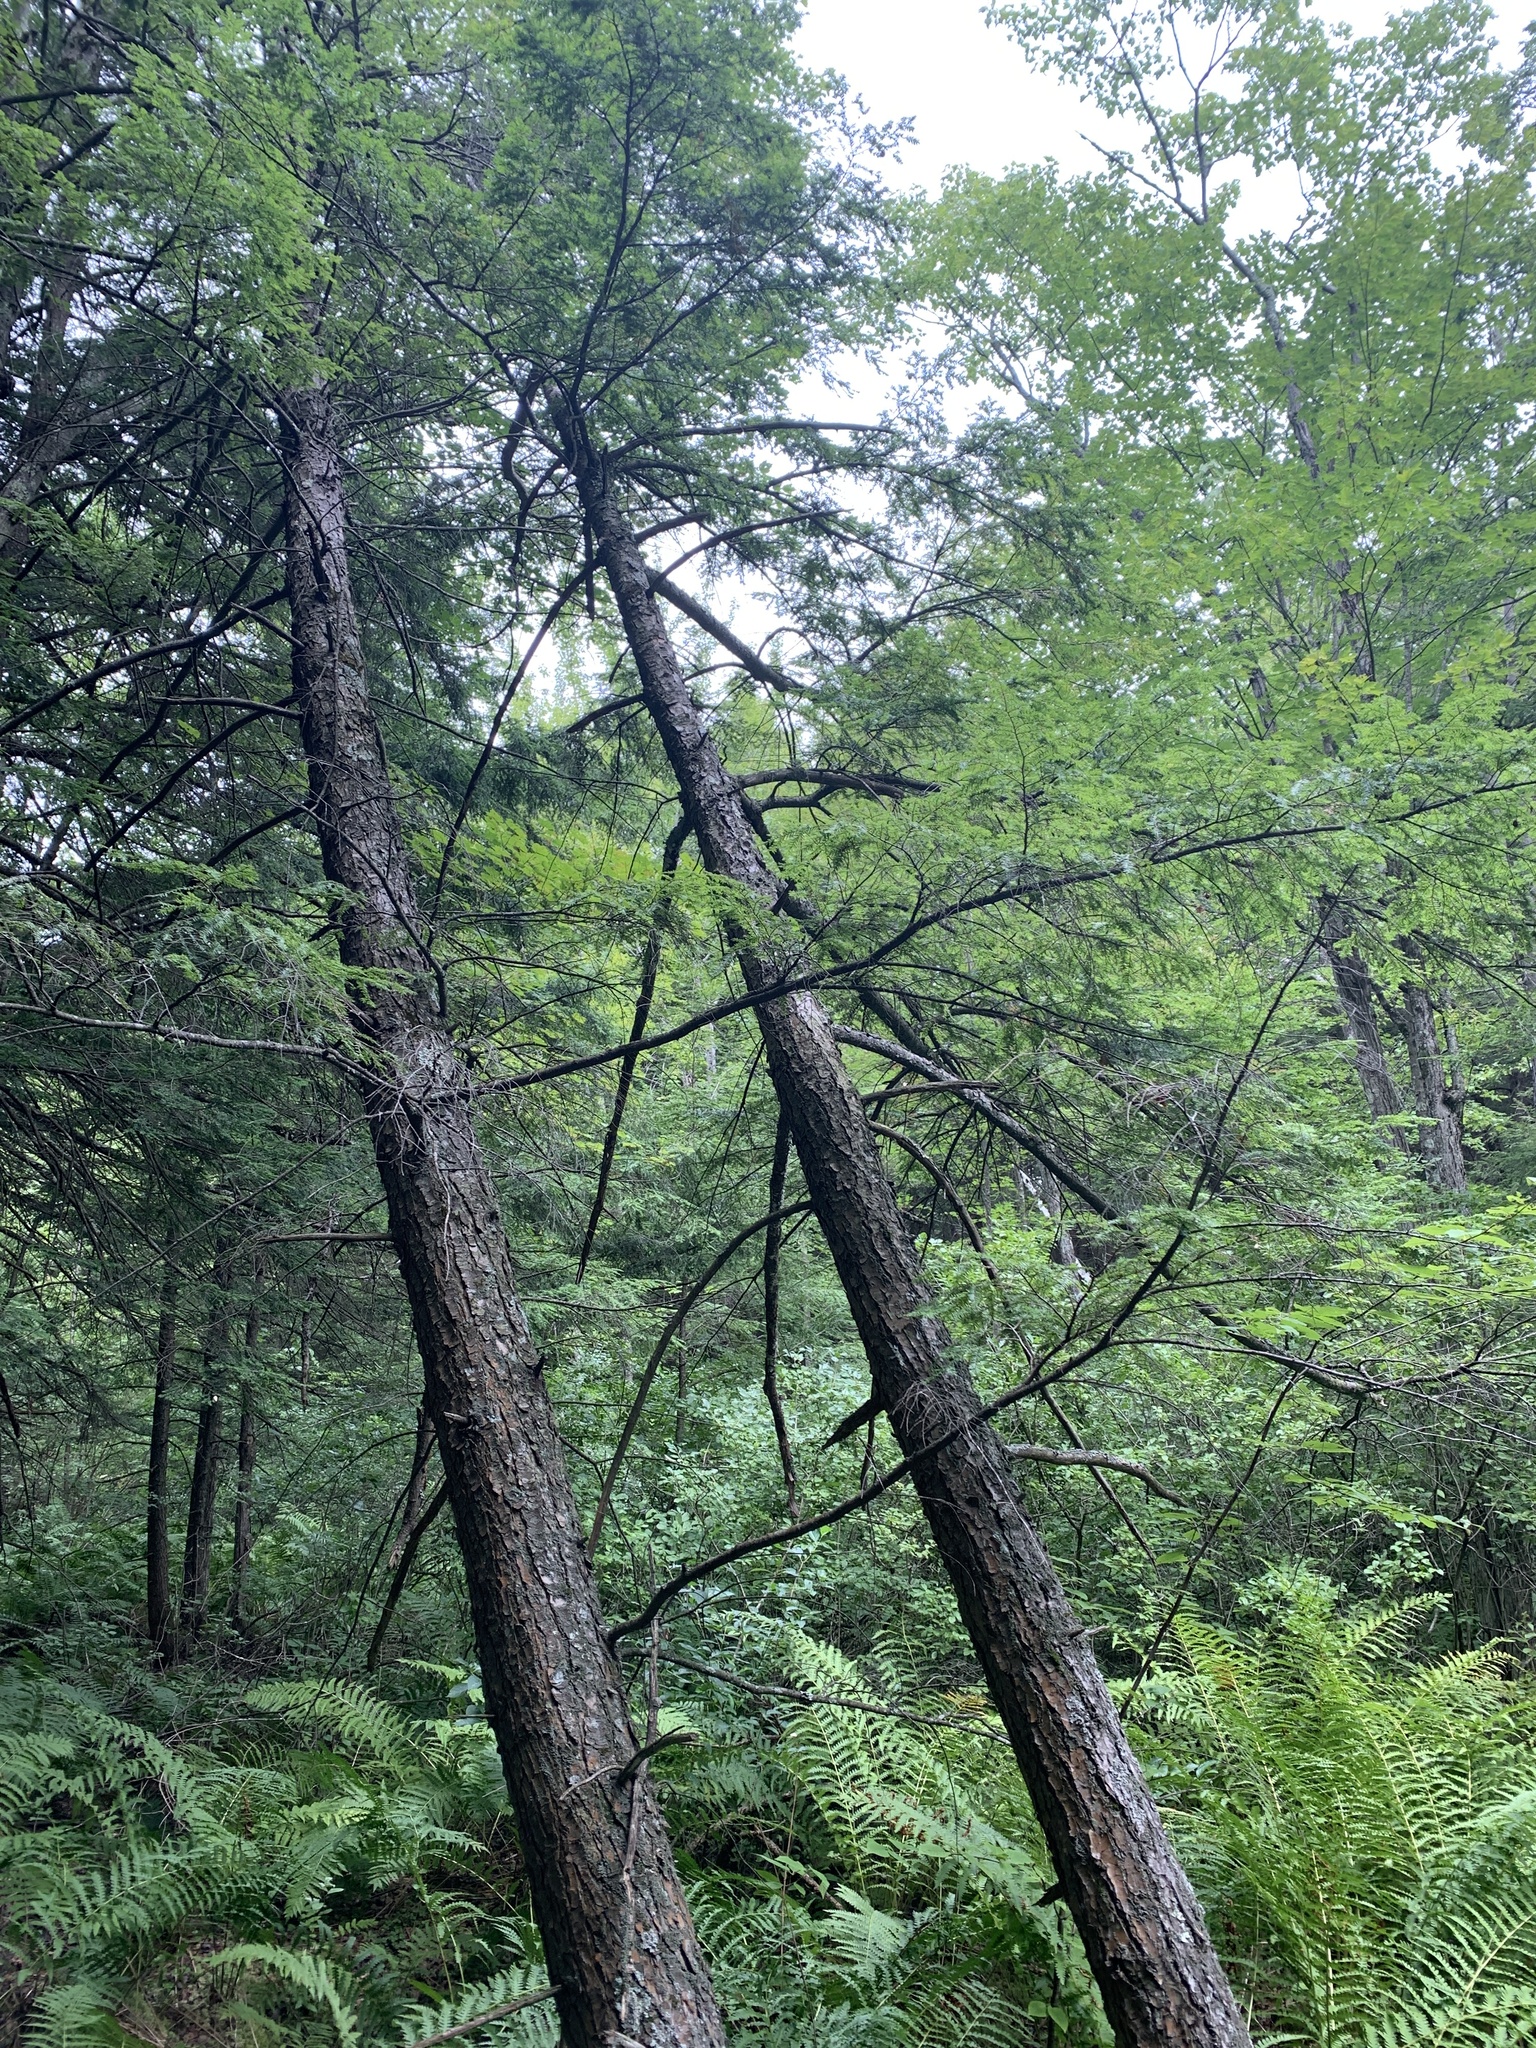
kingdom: Plantae
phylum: Tracheophyta
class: Pinopsida
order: Pinales
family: Pinaceae
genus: Tsuga
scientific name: Tsuga canadensis
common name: Eastern hemlock
